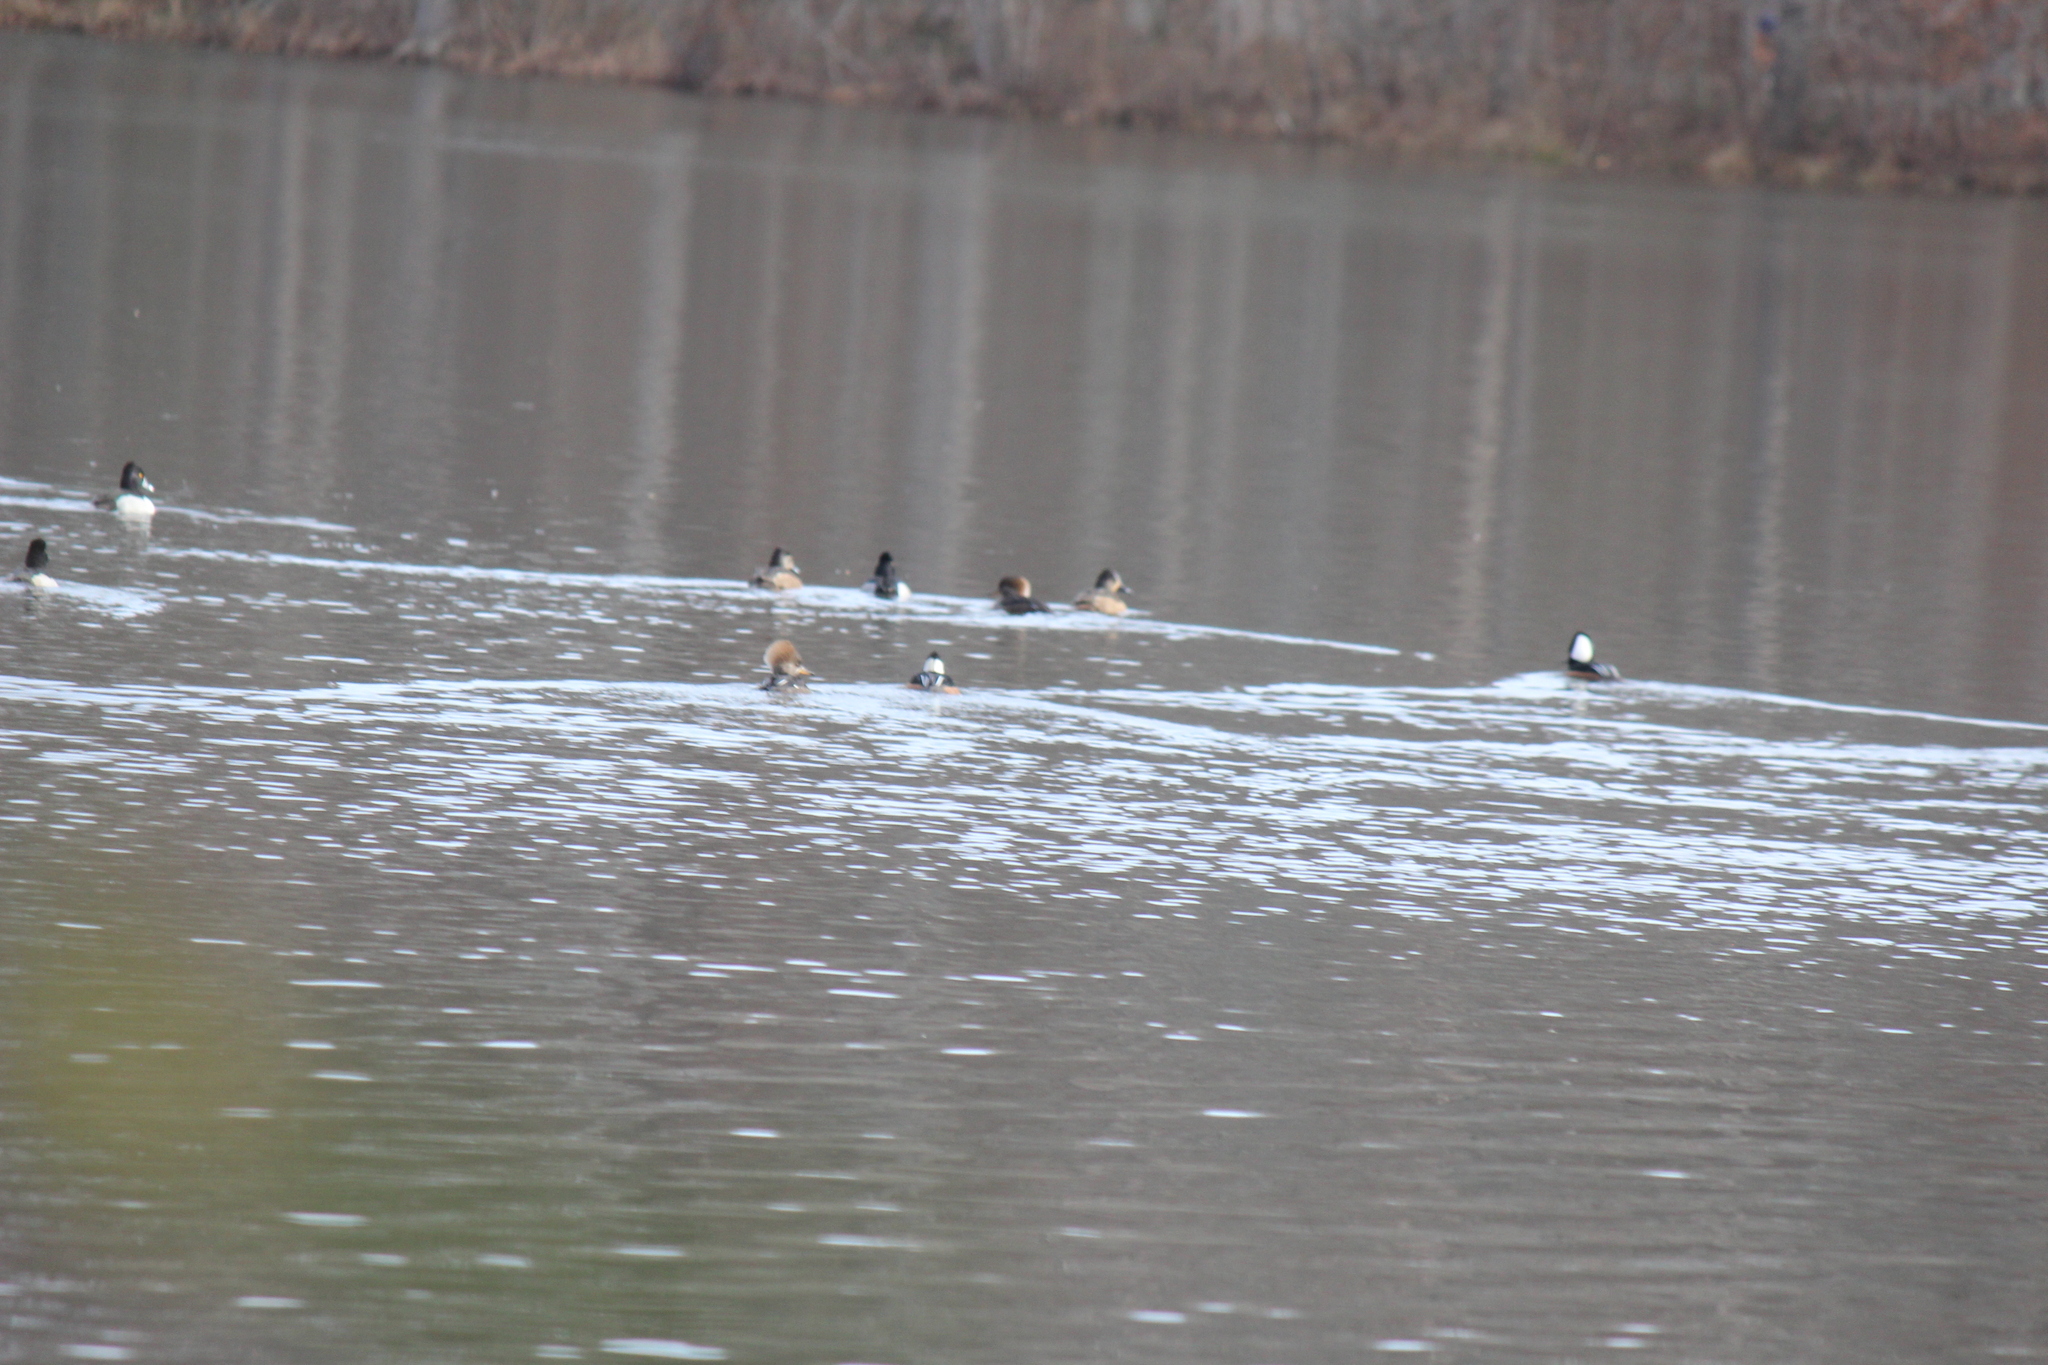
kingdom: Animalia
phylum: Chordata
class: Aves
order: Anseriformes
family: Anatidae
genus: Aythya
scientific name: Aythya collaris
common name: Ring-necked duck
